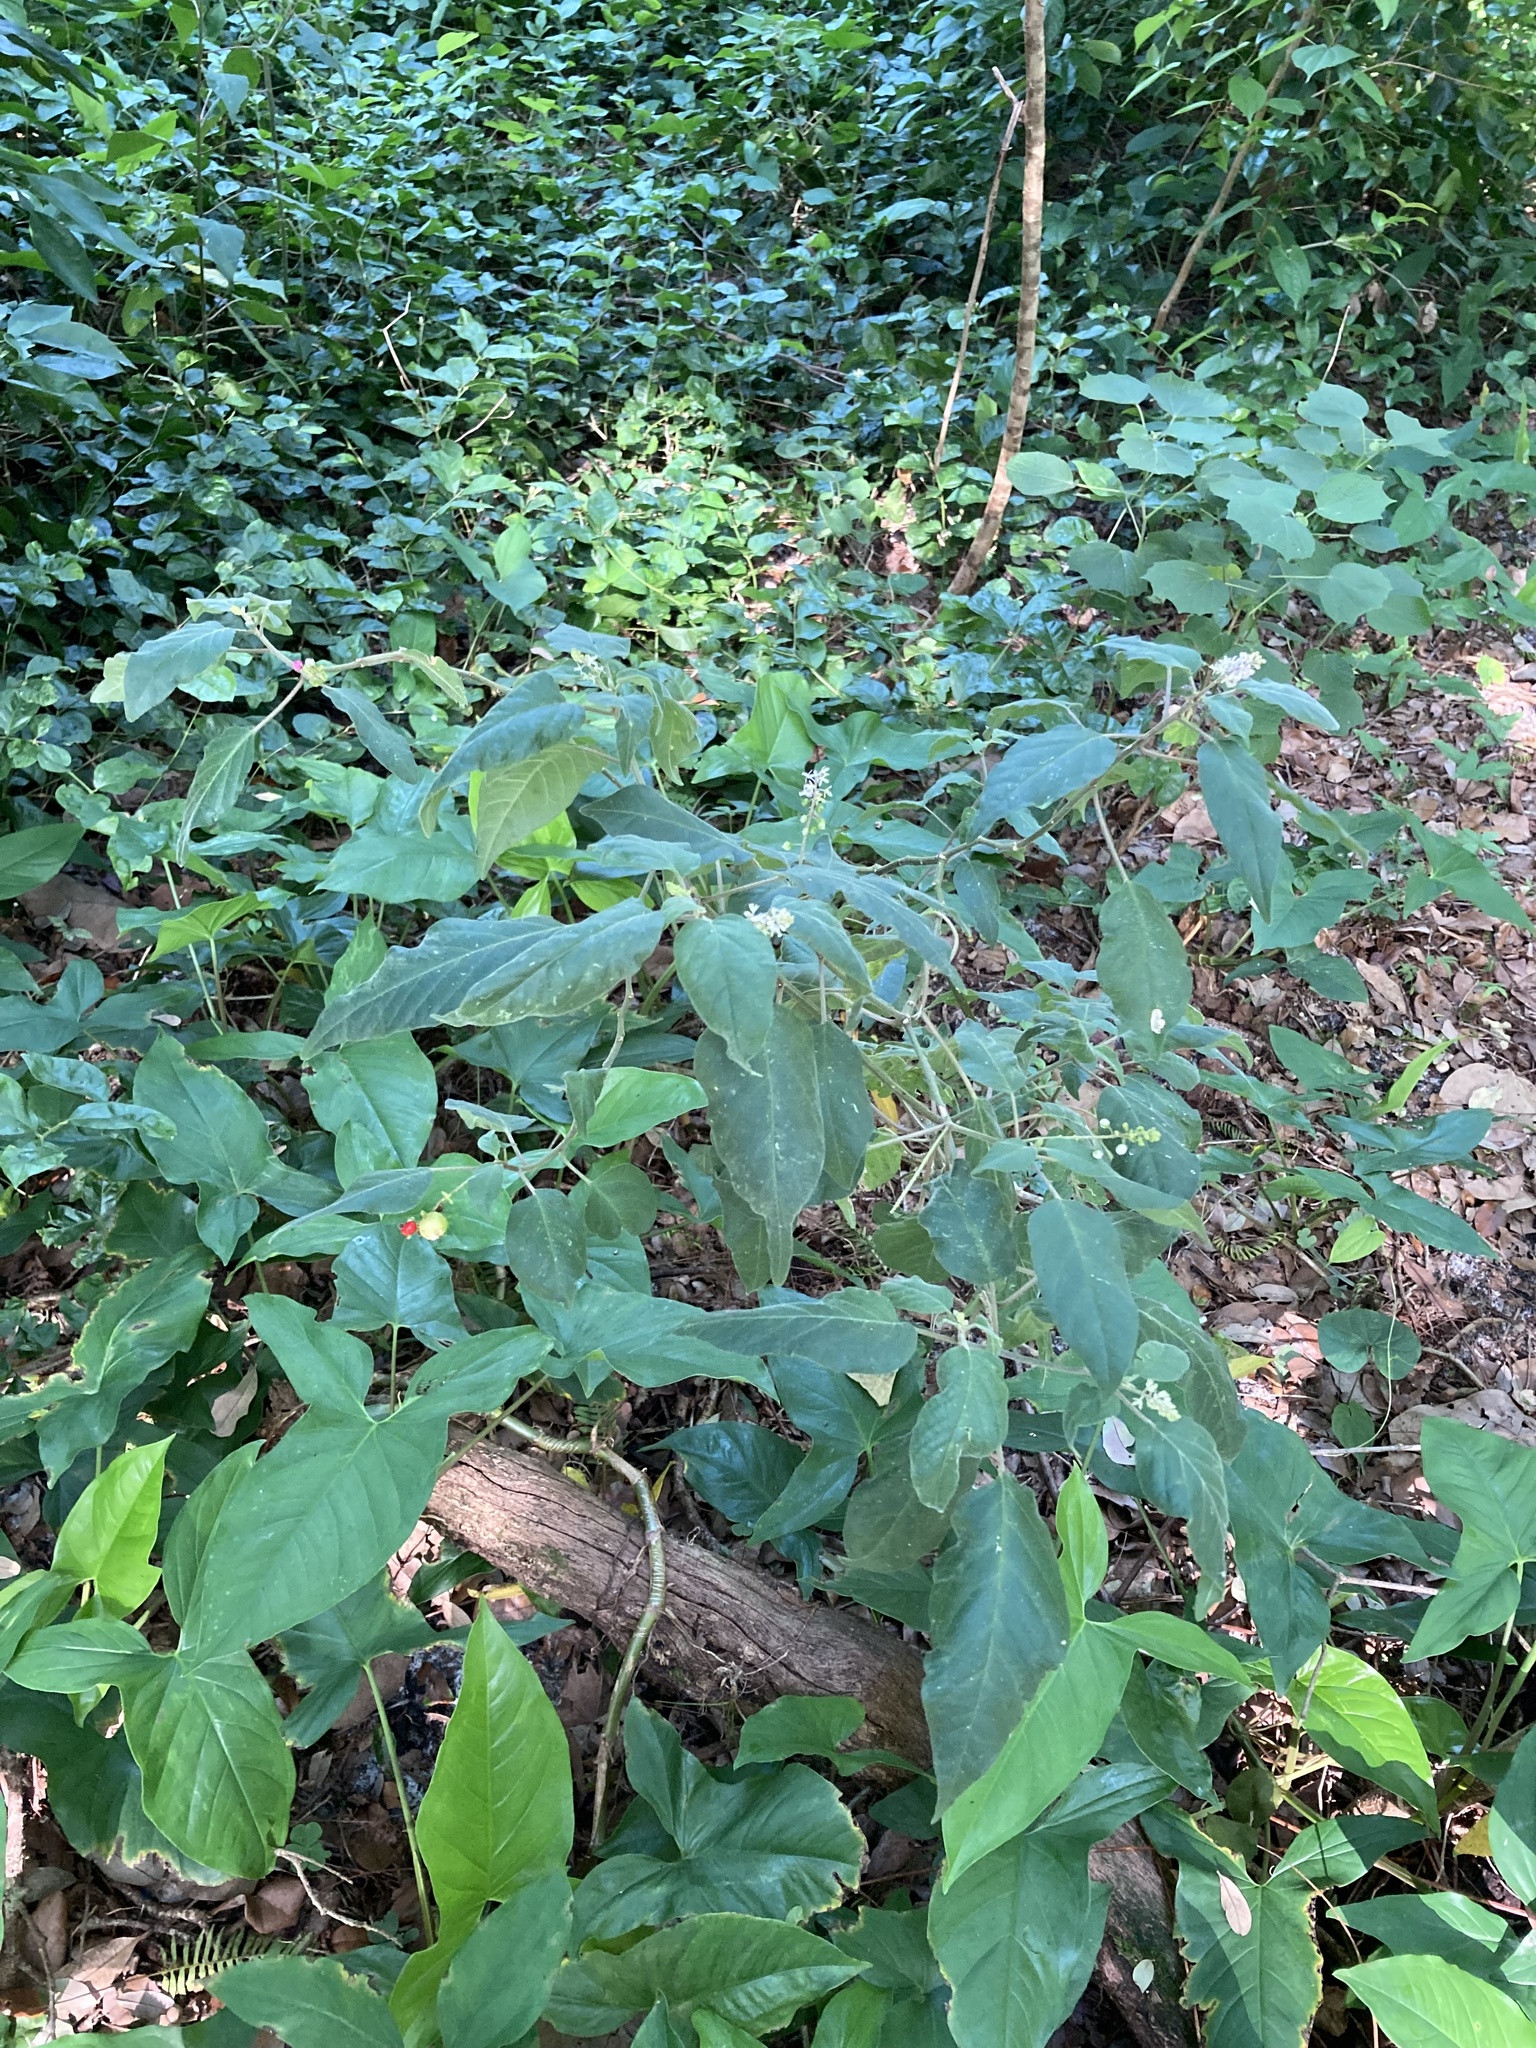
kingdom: Plantae
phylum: Tracheophyta
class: Magnoliopsida
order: Caryophyllales
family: Phytolaccaceae
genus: Rivina
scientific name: Rivina humilis
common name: Rougeplant
